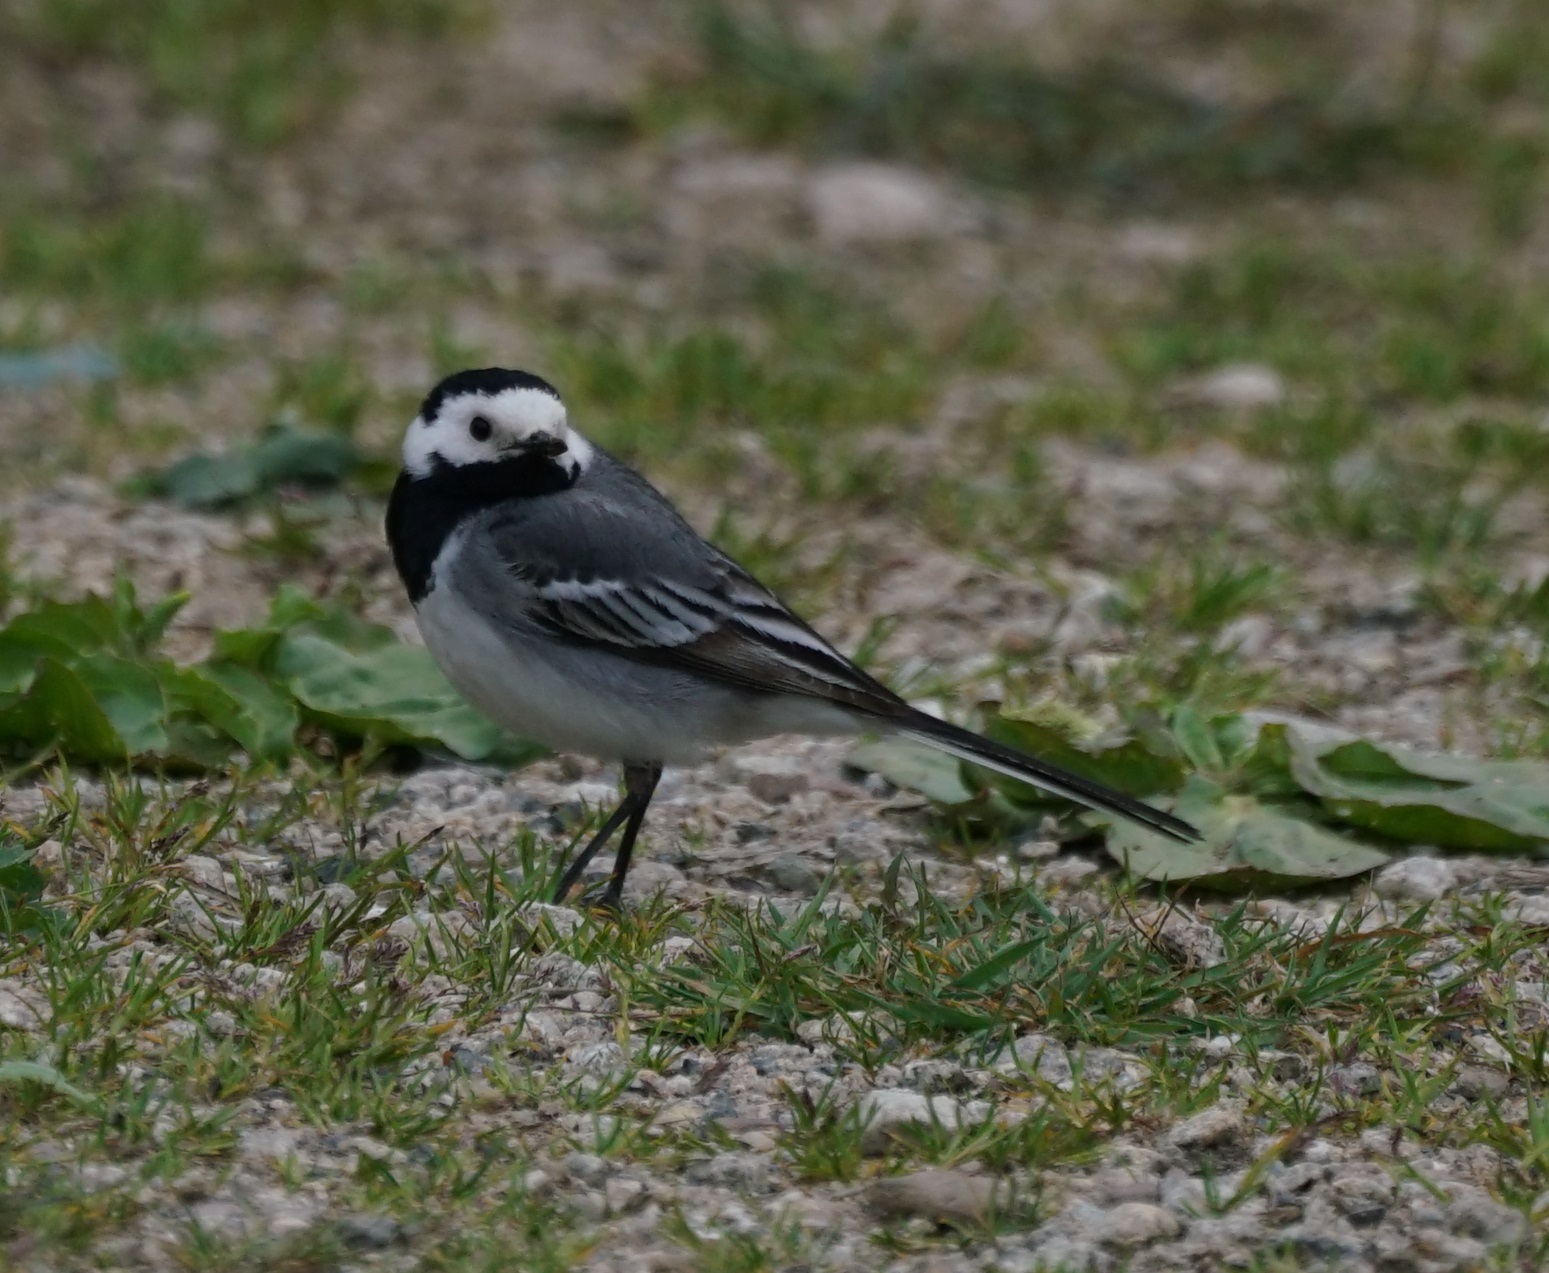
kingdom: Animalia
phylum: Chordata
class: Aves
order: Passeriformes
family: Motacillidae
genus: Motacilla
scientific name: Motacilla alba
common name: White wagtail
